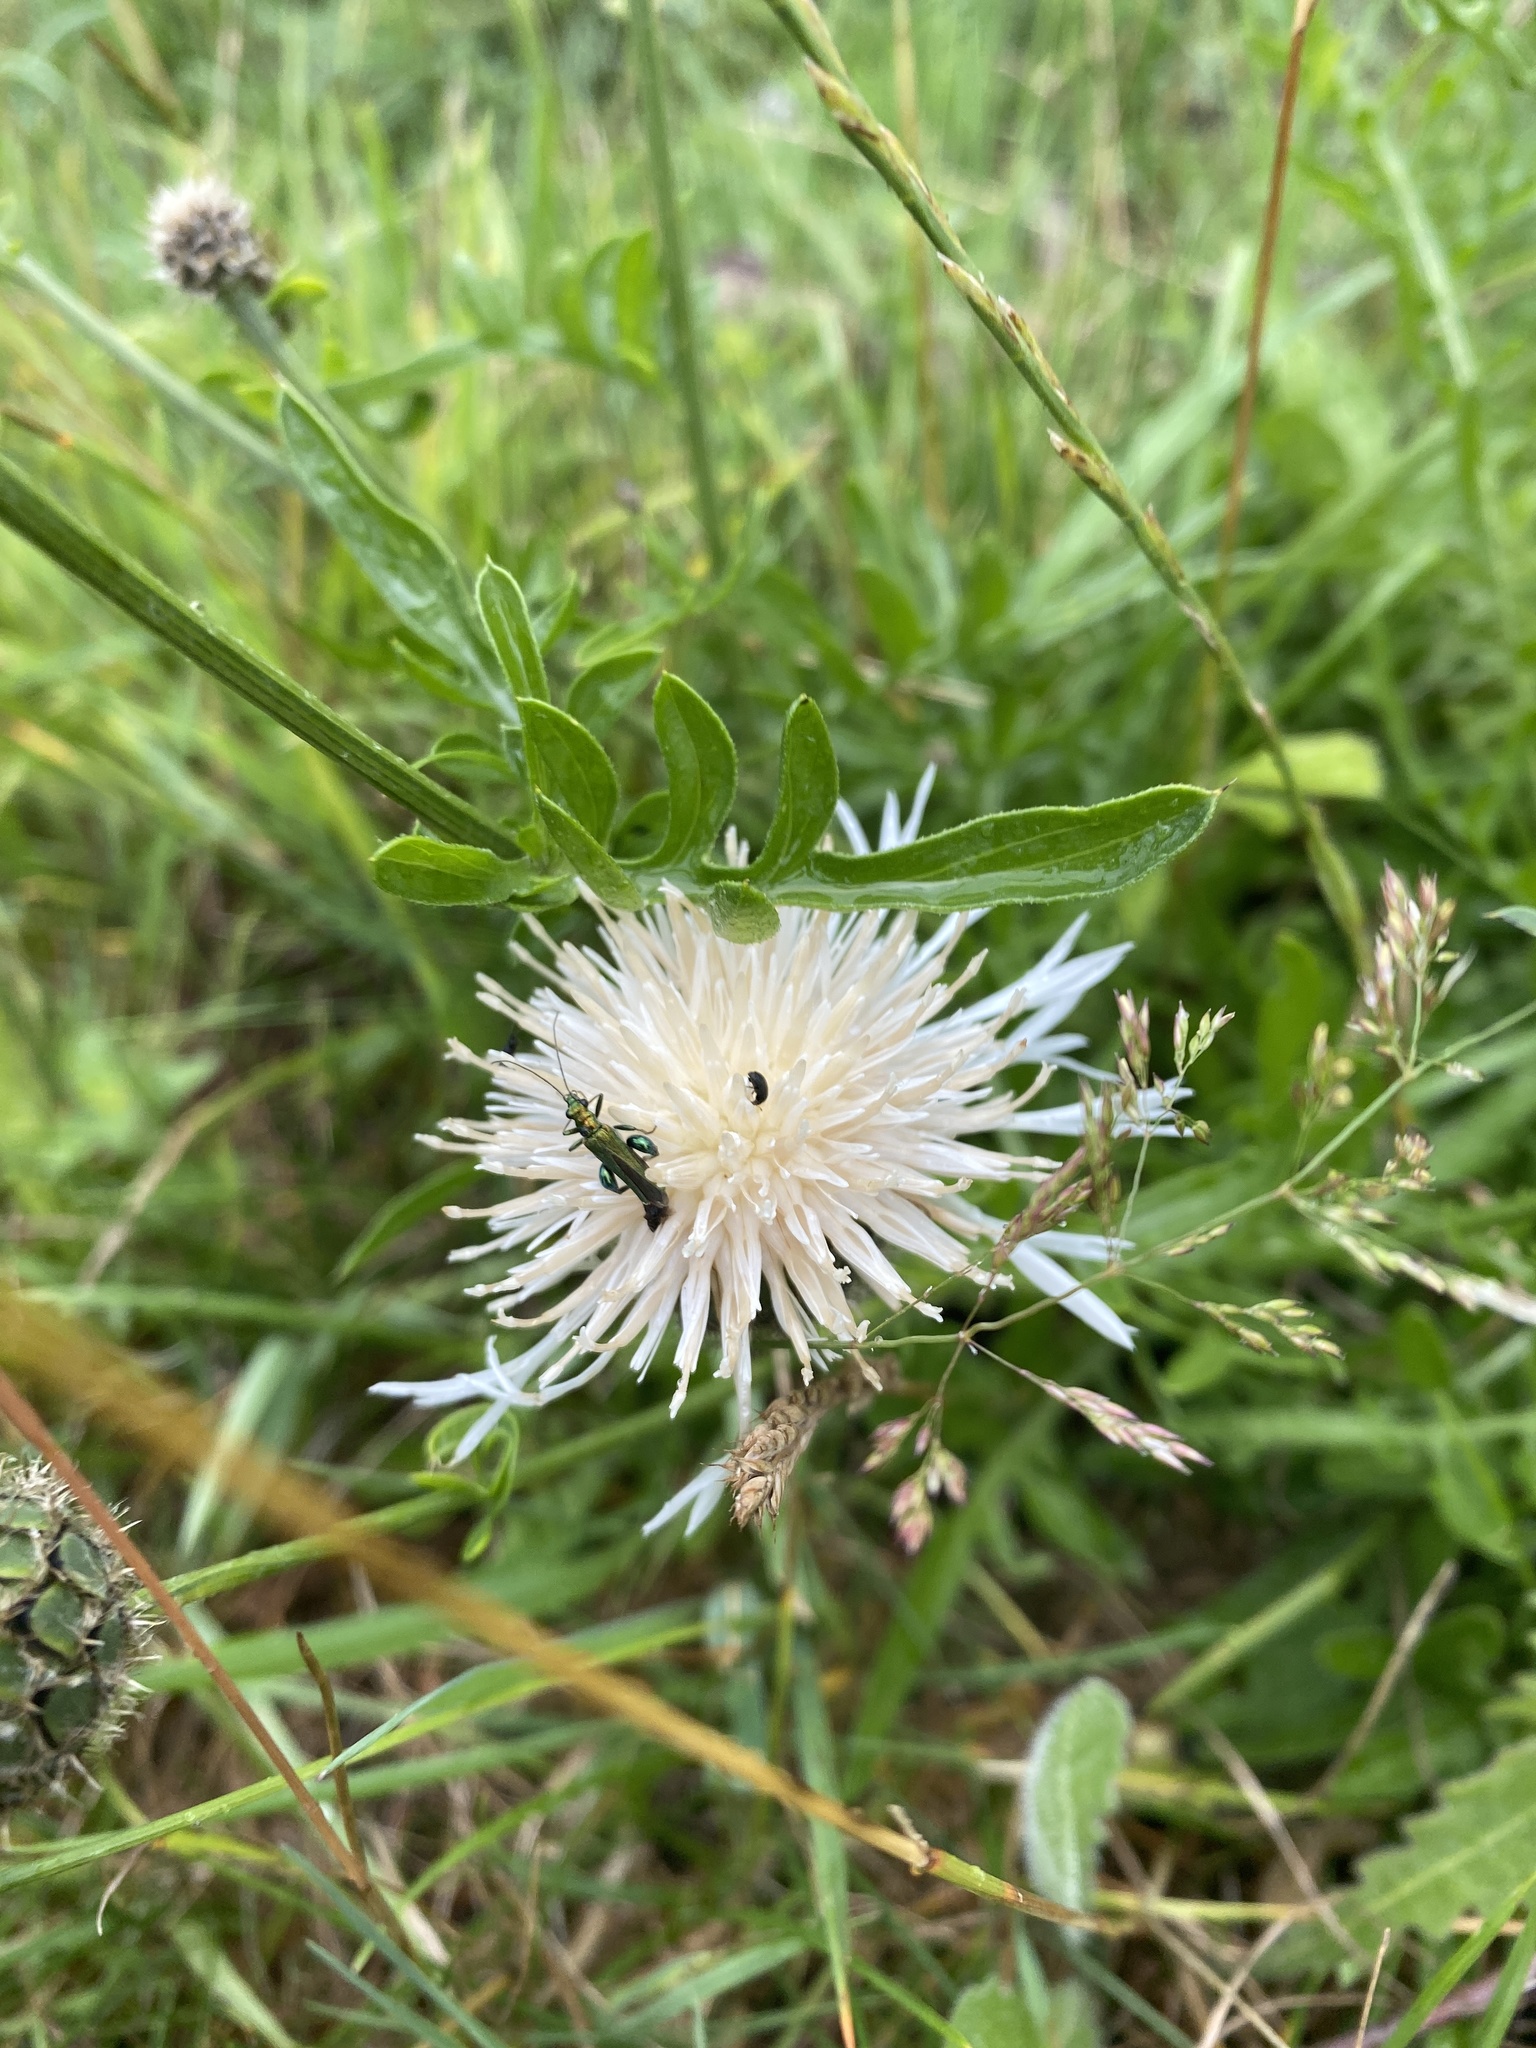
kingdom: Plantae
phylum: Tracheophyta
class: Magnoliopsida
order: Asterales
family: Asteraceae
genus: Centaurea
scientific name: Centaurea scabiosa
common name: Greater knapweed
